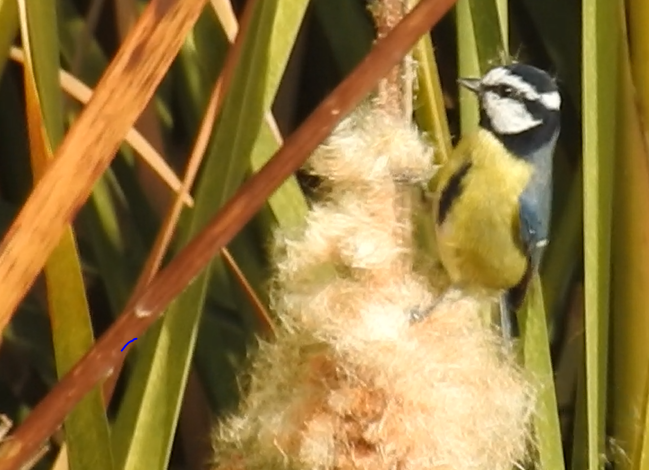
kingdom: Animalia
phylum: Chordata
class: Aves
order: Passeriformes
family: Paridae
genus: Cyanistes
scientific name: Cyanistes teneriffae
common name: African blue tit
